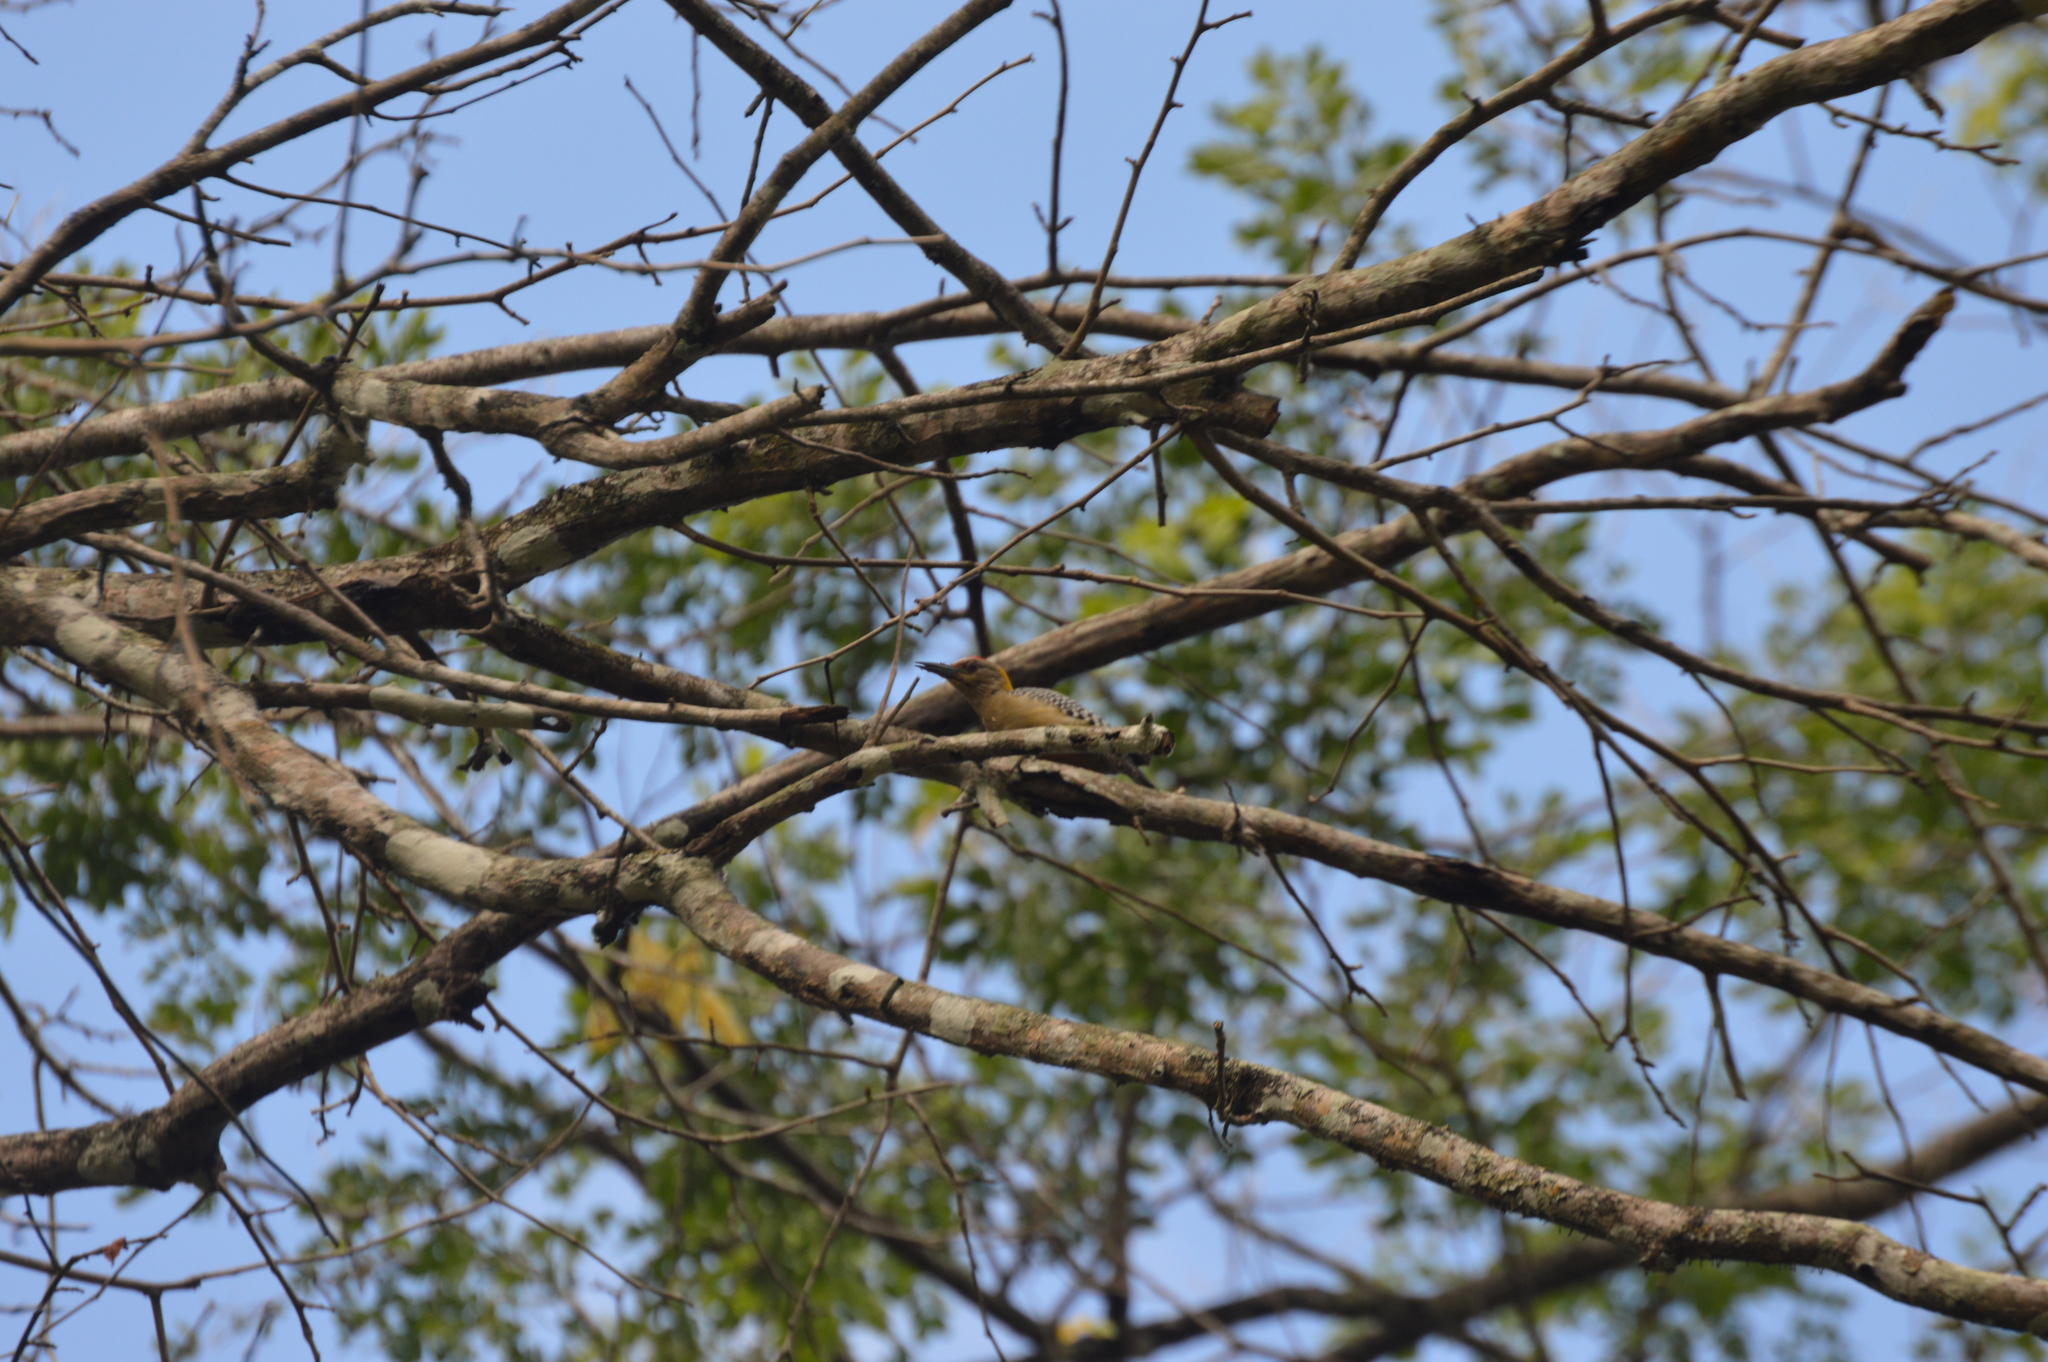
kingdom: Animalia
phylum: Chordata
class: Aves
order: Piciformes
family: Picidae
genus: Melanerpes
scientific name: Melanerpes hoffmannii
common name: Hoffmann's woodpecker
